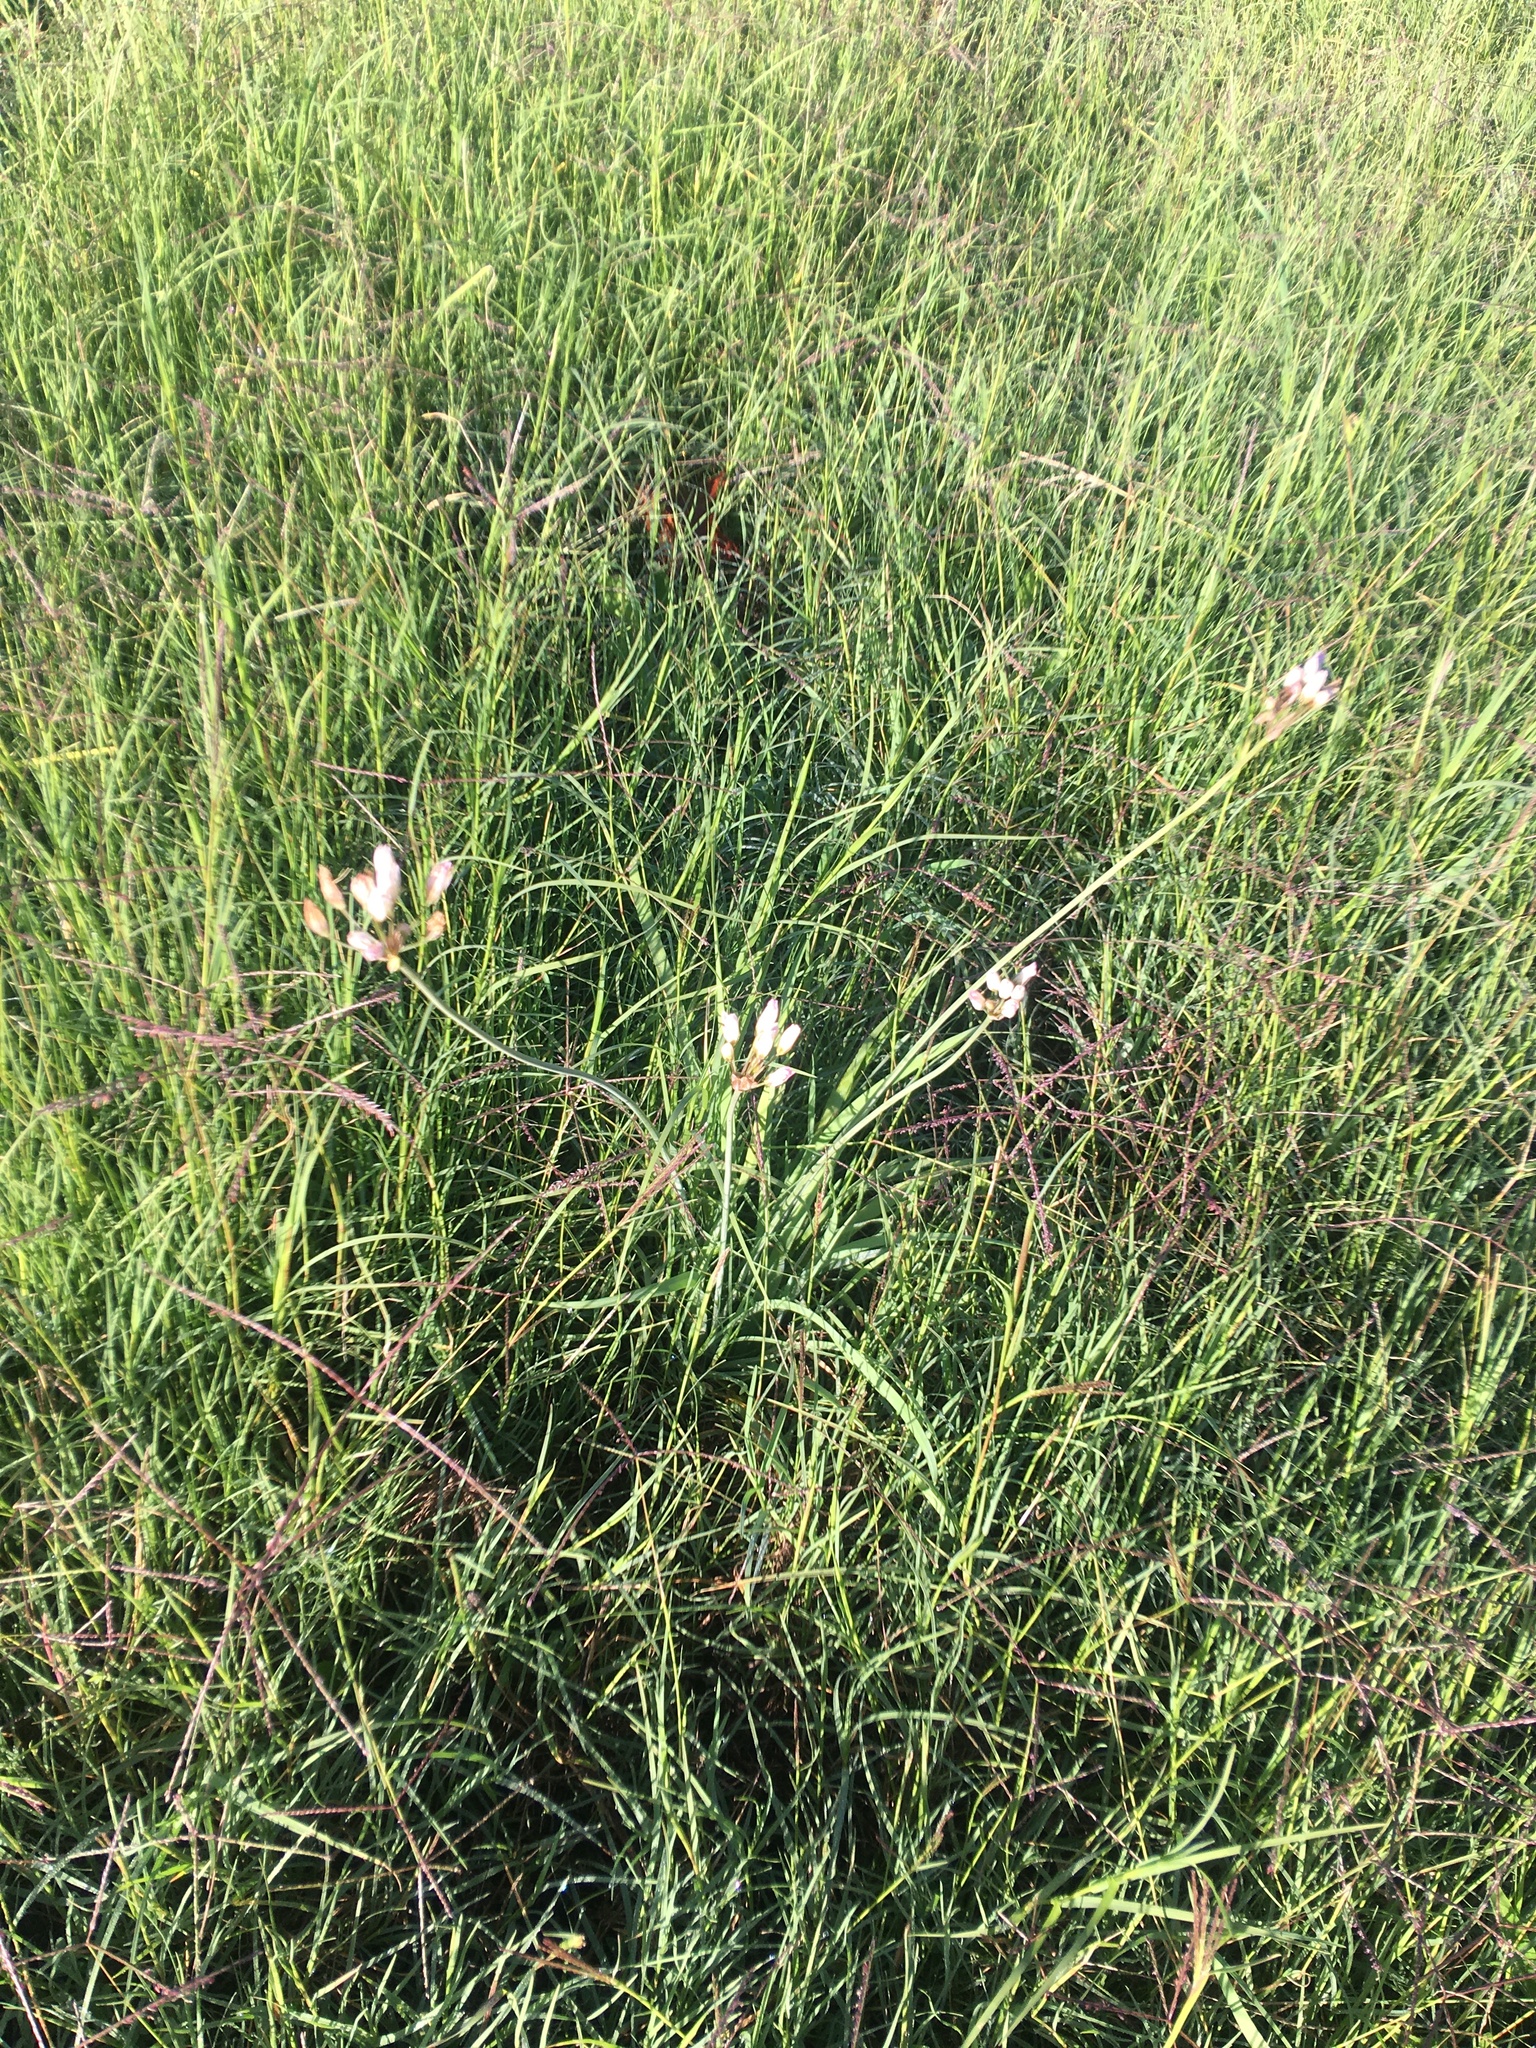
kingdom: Plantae
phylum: Tracheophyta
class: Liliopsida
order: Asparagales
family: Amaryllidaceae
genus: Nothoscordum
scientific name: Nothoscordum gracile
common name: Slender false garlic
